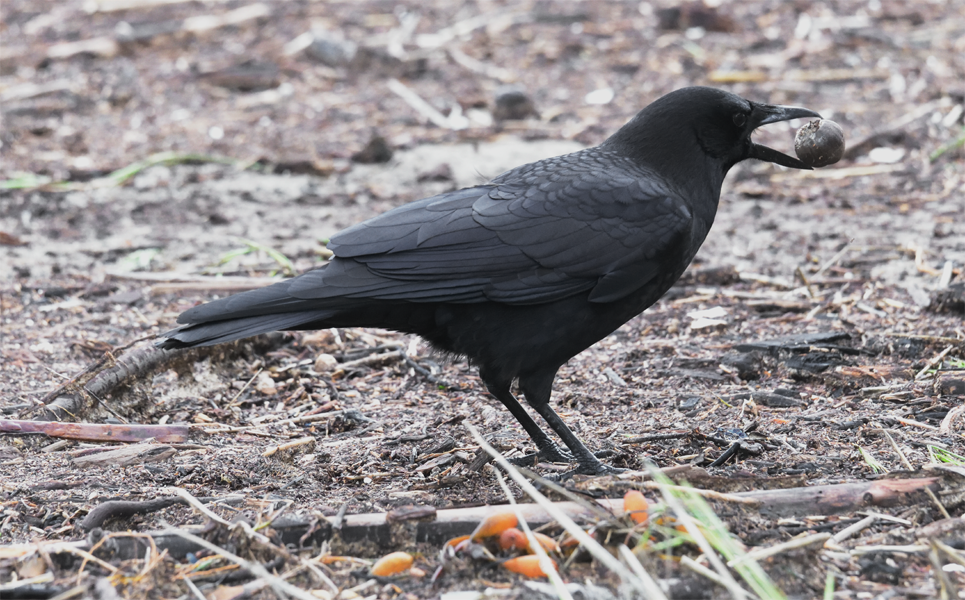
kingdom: Animalia
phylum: Chordata
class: Aves
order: Passeriformes
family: Corvidae
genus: Corvus
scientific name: Corvus brachyrhynchos
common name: American crow
